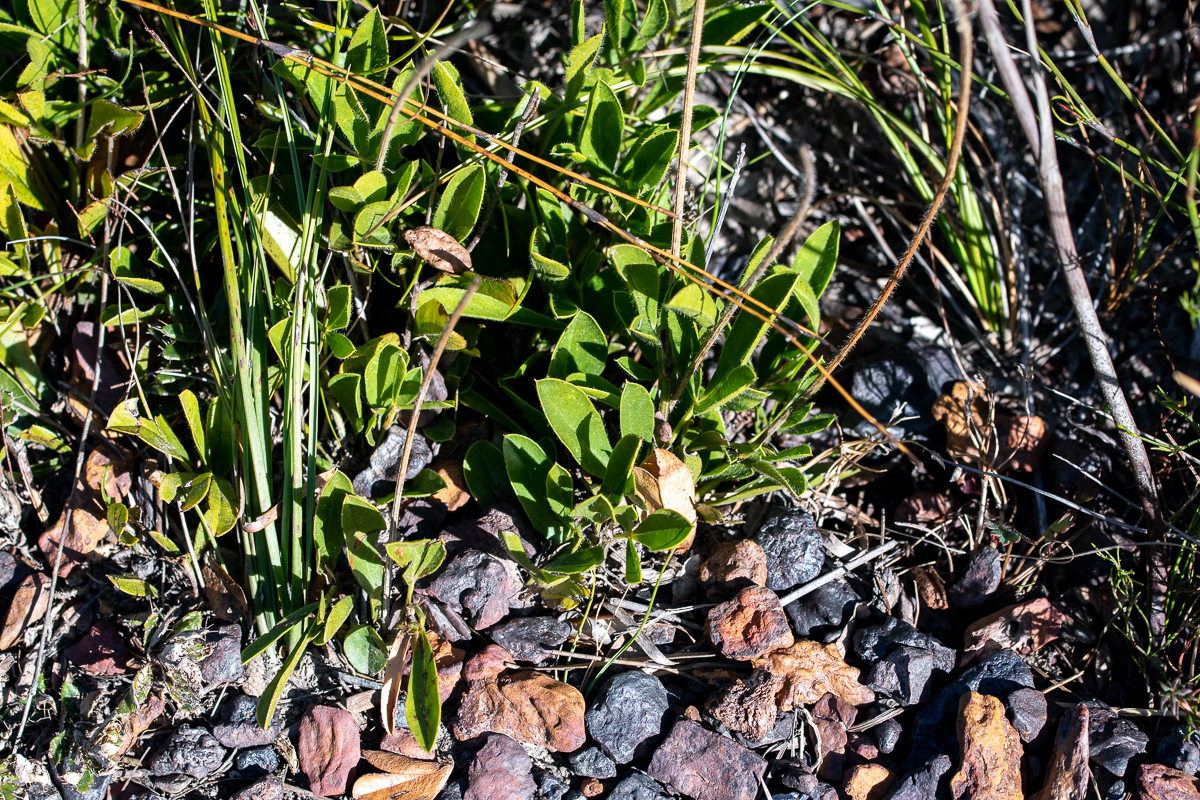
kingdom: Plantae
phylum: Tracheophyta
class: Magnoliopsida
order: Fabales
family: Fabaceae
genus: Psoralea
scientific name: Psoralea zeyheri
